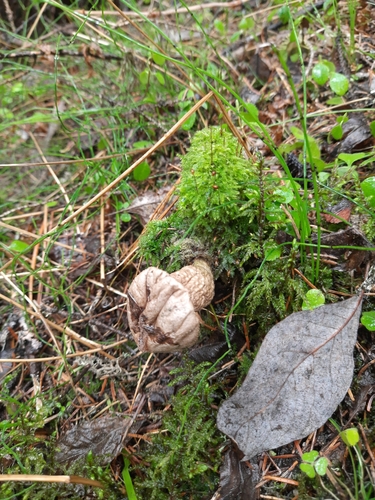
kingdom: Fungi
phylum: Basidiomycota
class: Agaricomycetes
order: Agaricales
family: Lycoperdaceae
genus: Lycoperdon
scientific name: Lycoperdon perlatum
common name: Common puffball
